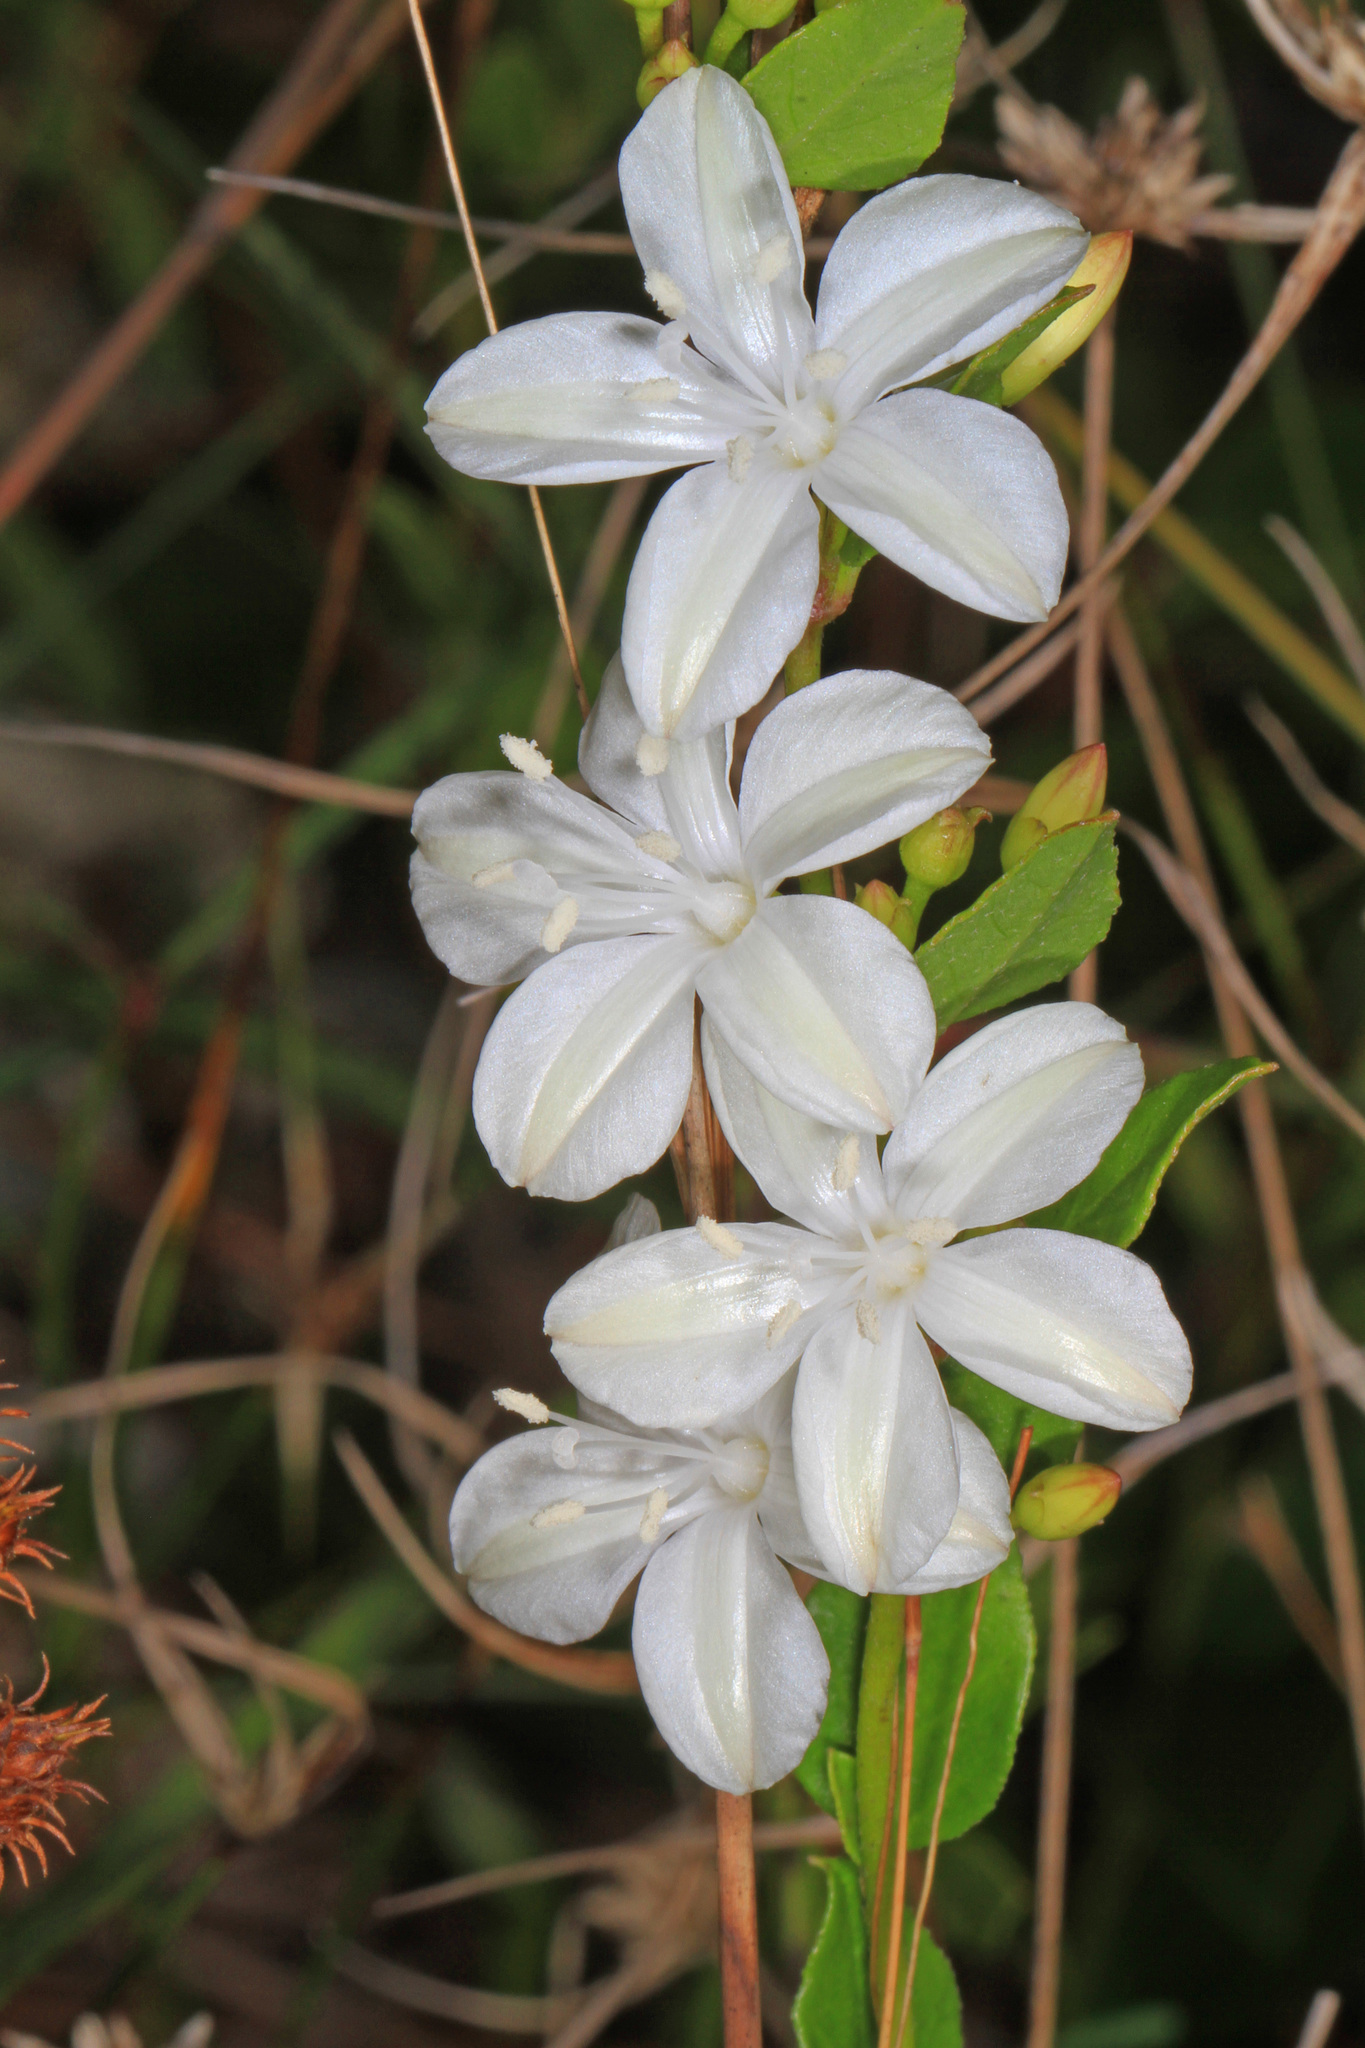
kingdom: Plantae
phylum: Tracheophyta
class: Magnoliopsida
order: Solanales
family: Convolvulaceae
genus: Jacquemontia
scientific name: Jacquemontia curtissii
